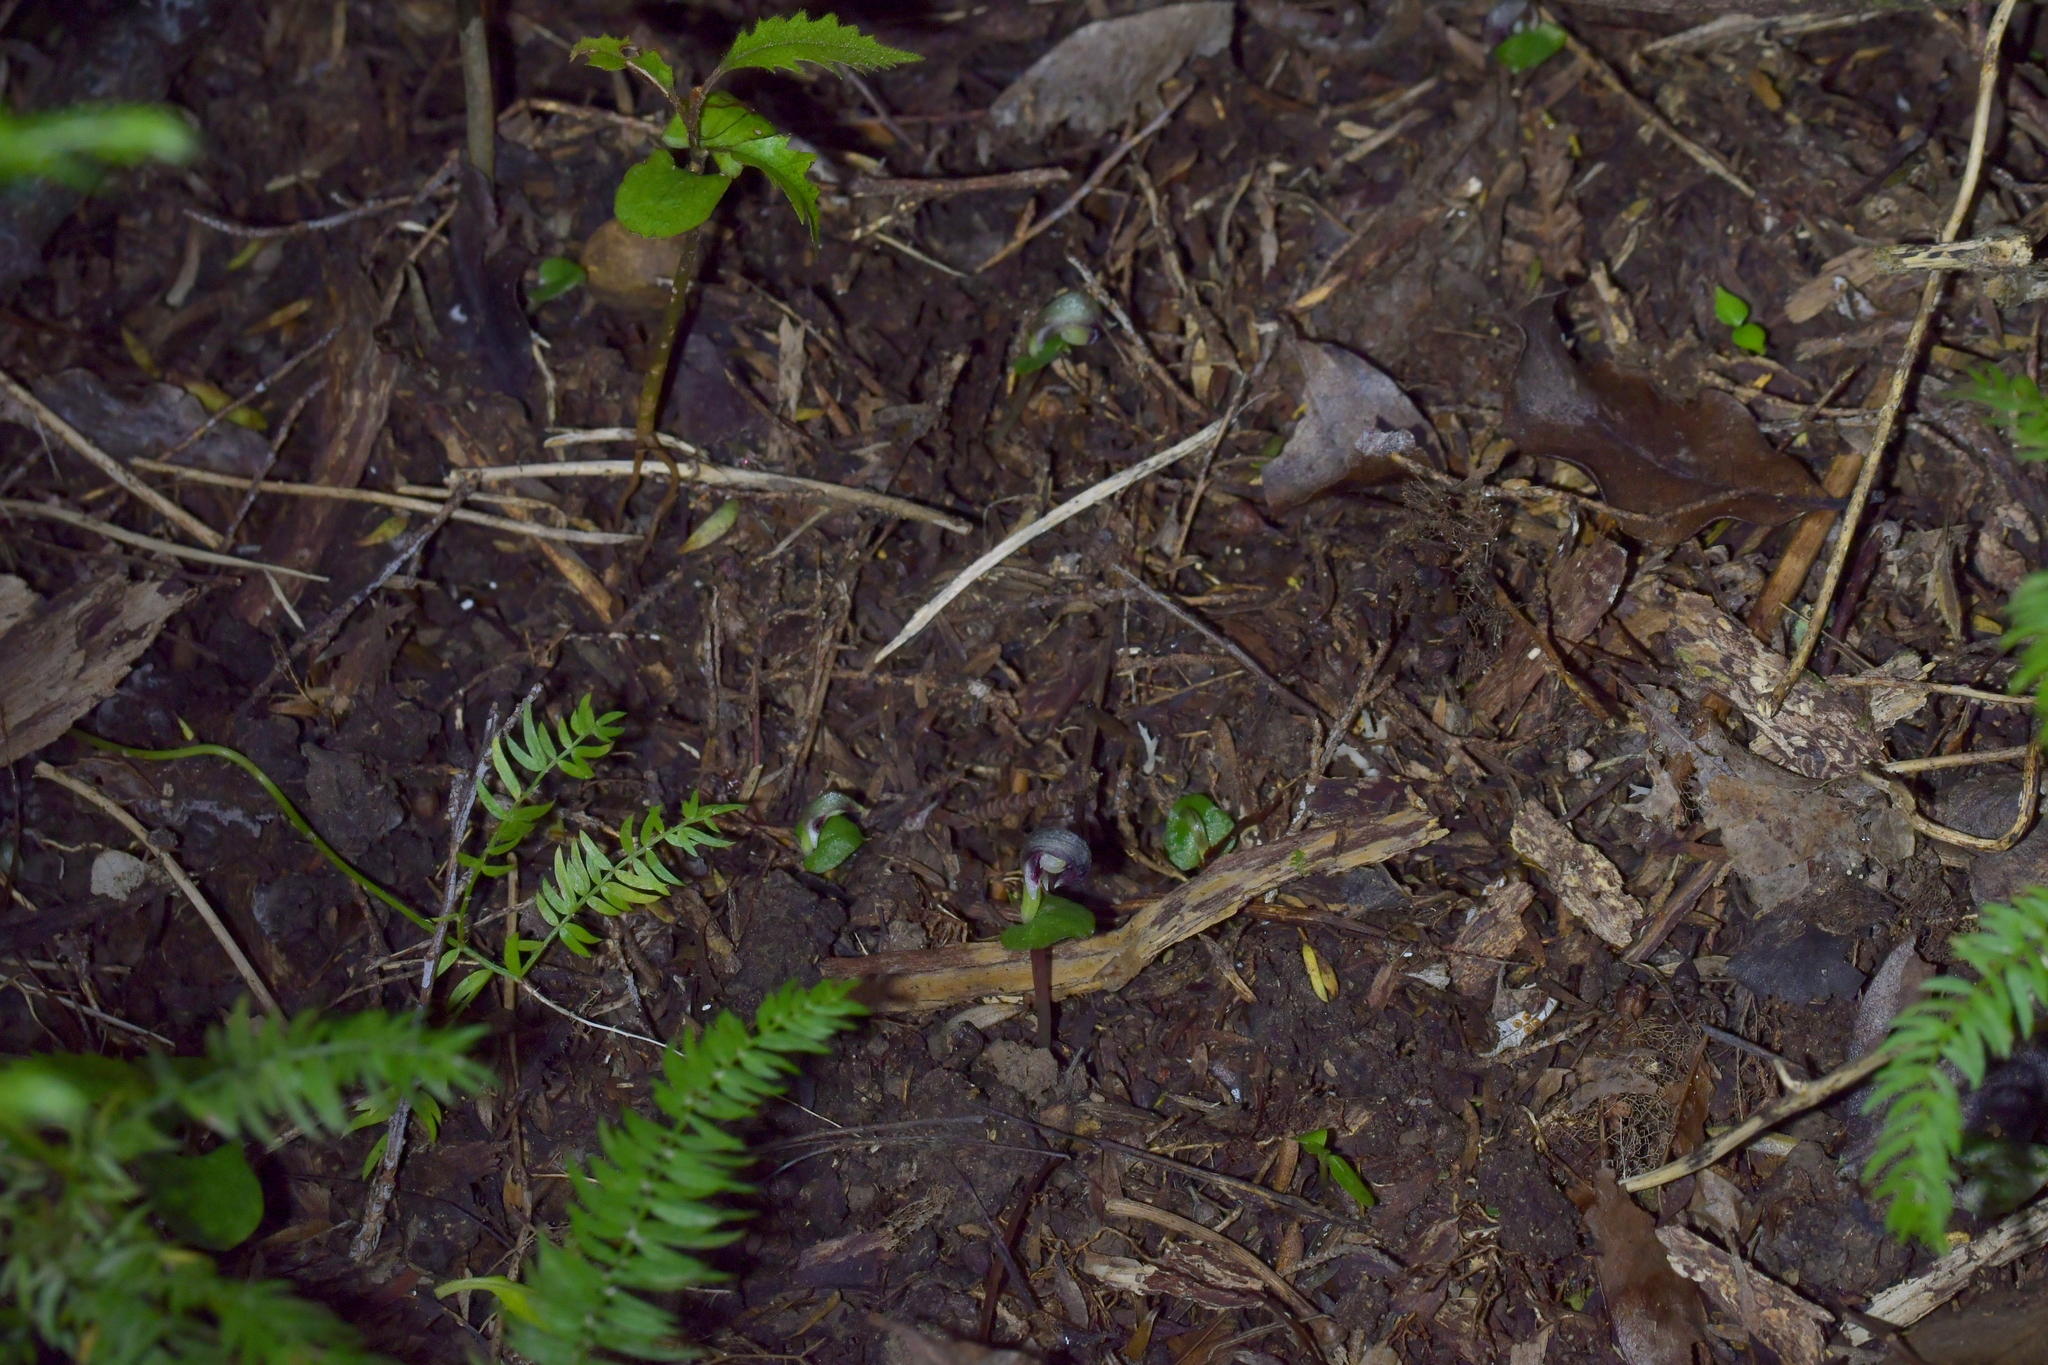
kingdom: Plantae
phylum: Tracheophyta
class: Liliopsida
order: Asparagales
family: Orchidaceae
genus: Corybas
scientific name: Corybas cheesemanii
